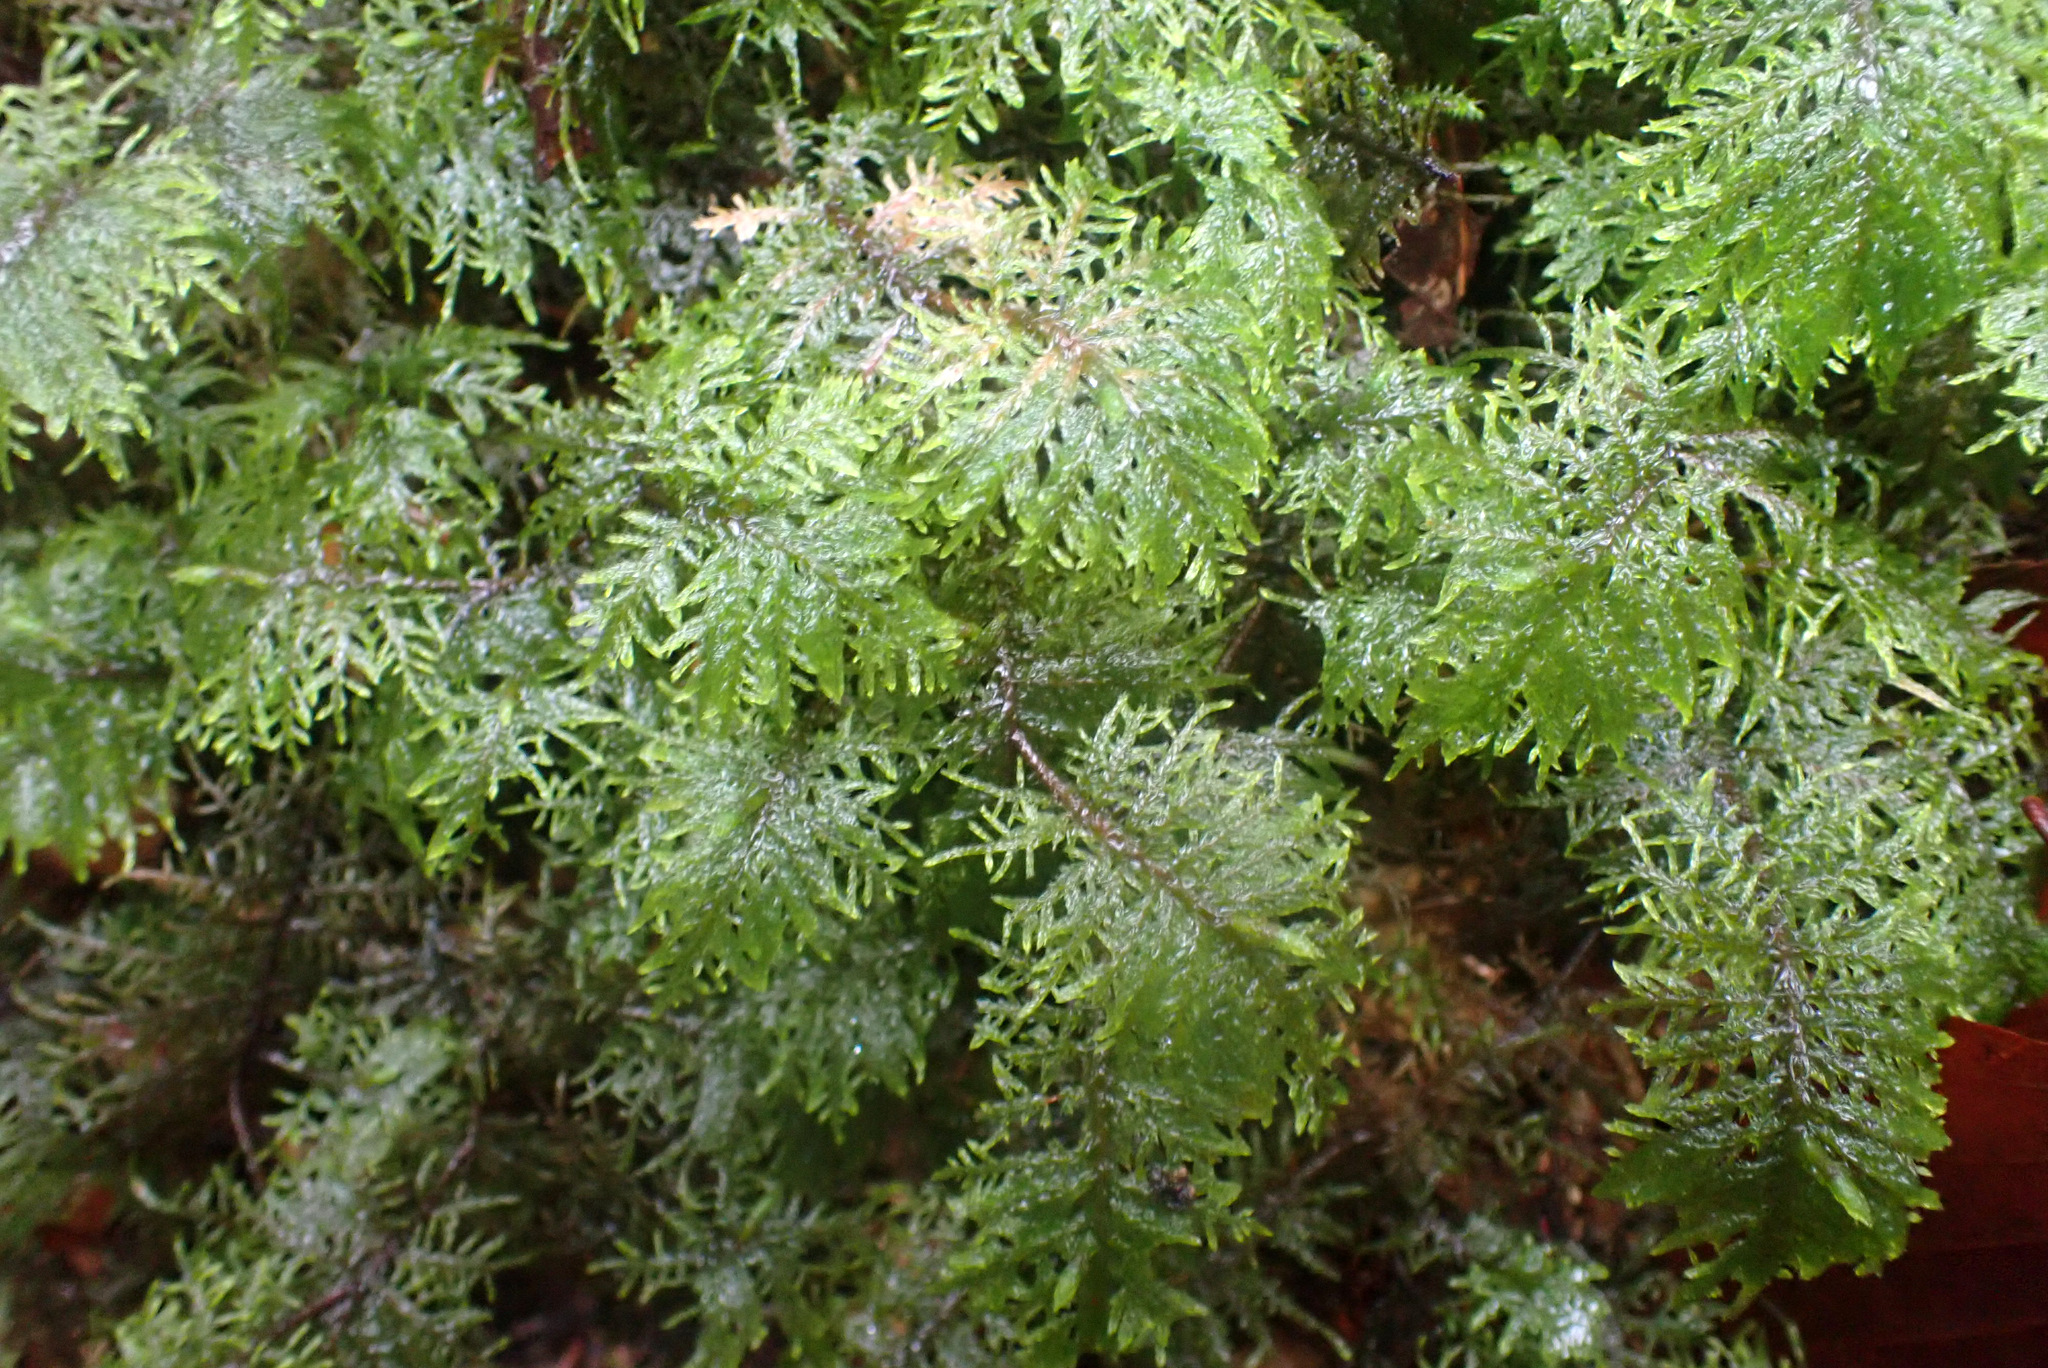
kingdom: Plantae
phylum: Bryophyta
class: Bryopsida
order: Hypnales
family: Hylocomiaceae
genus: Hylocomium
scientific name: Hylocomium splendens
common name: Stairstep moss
